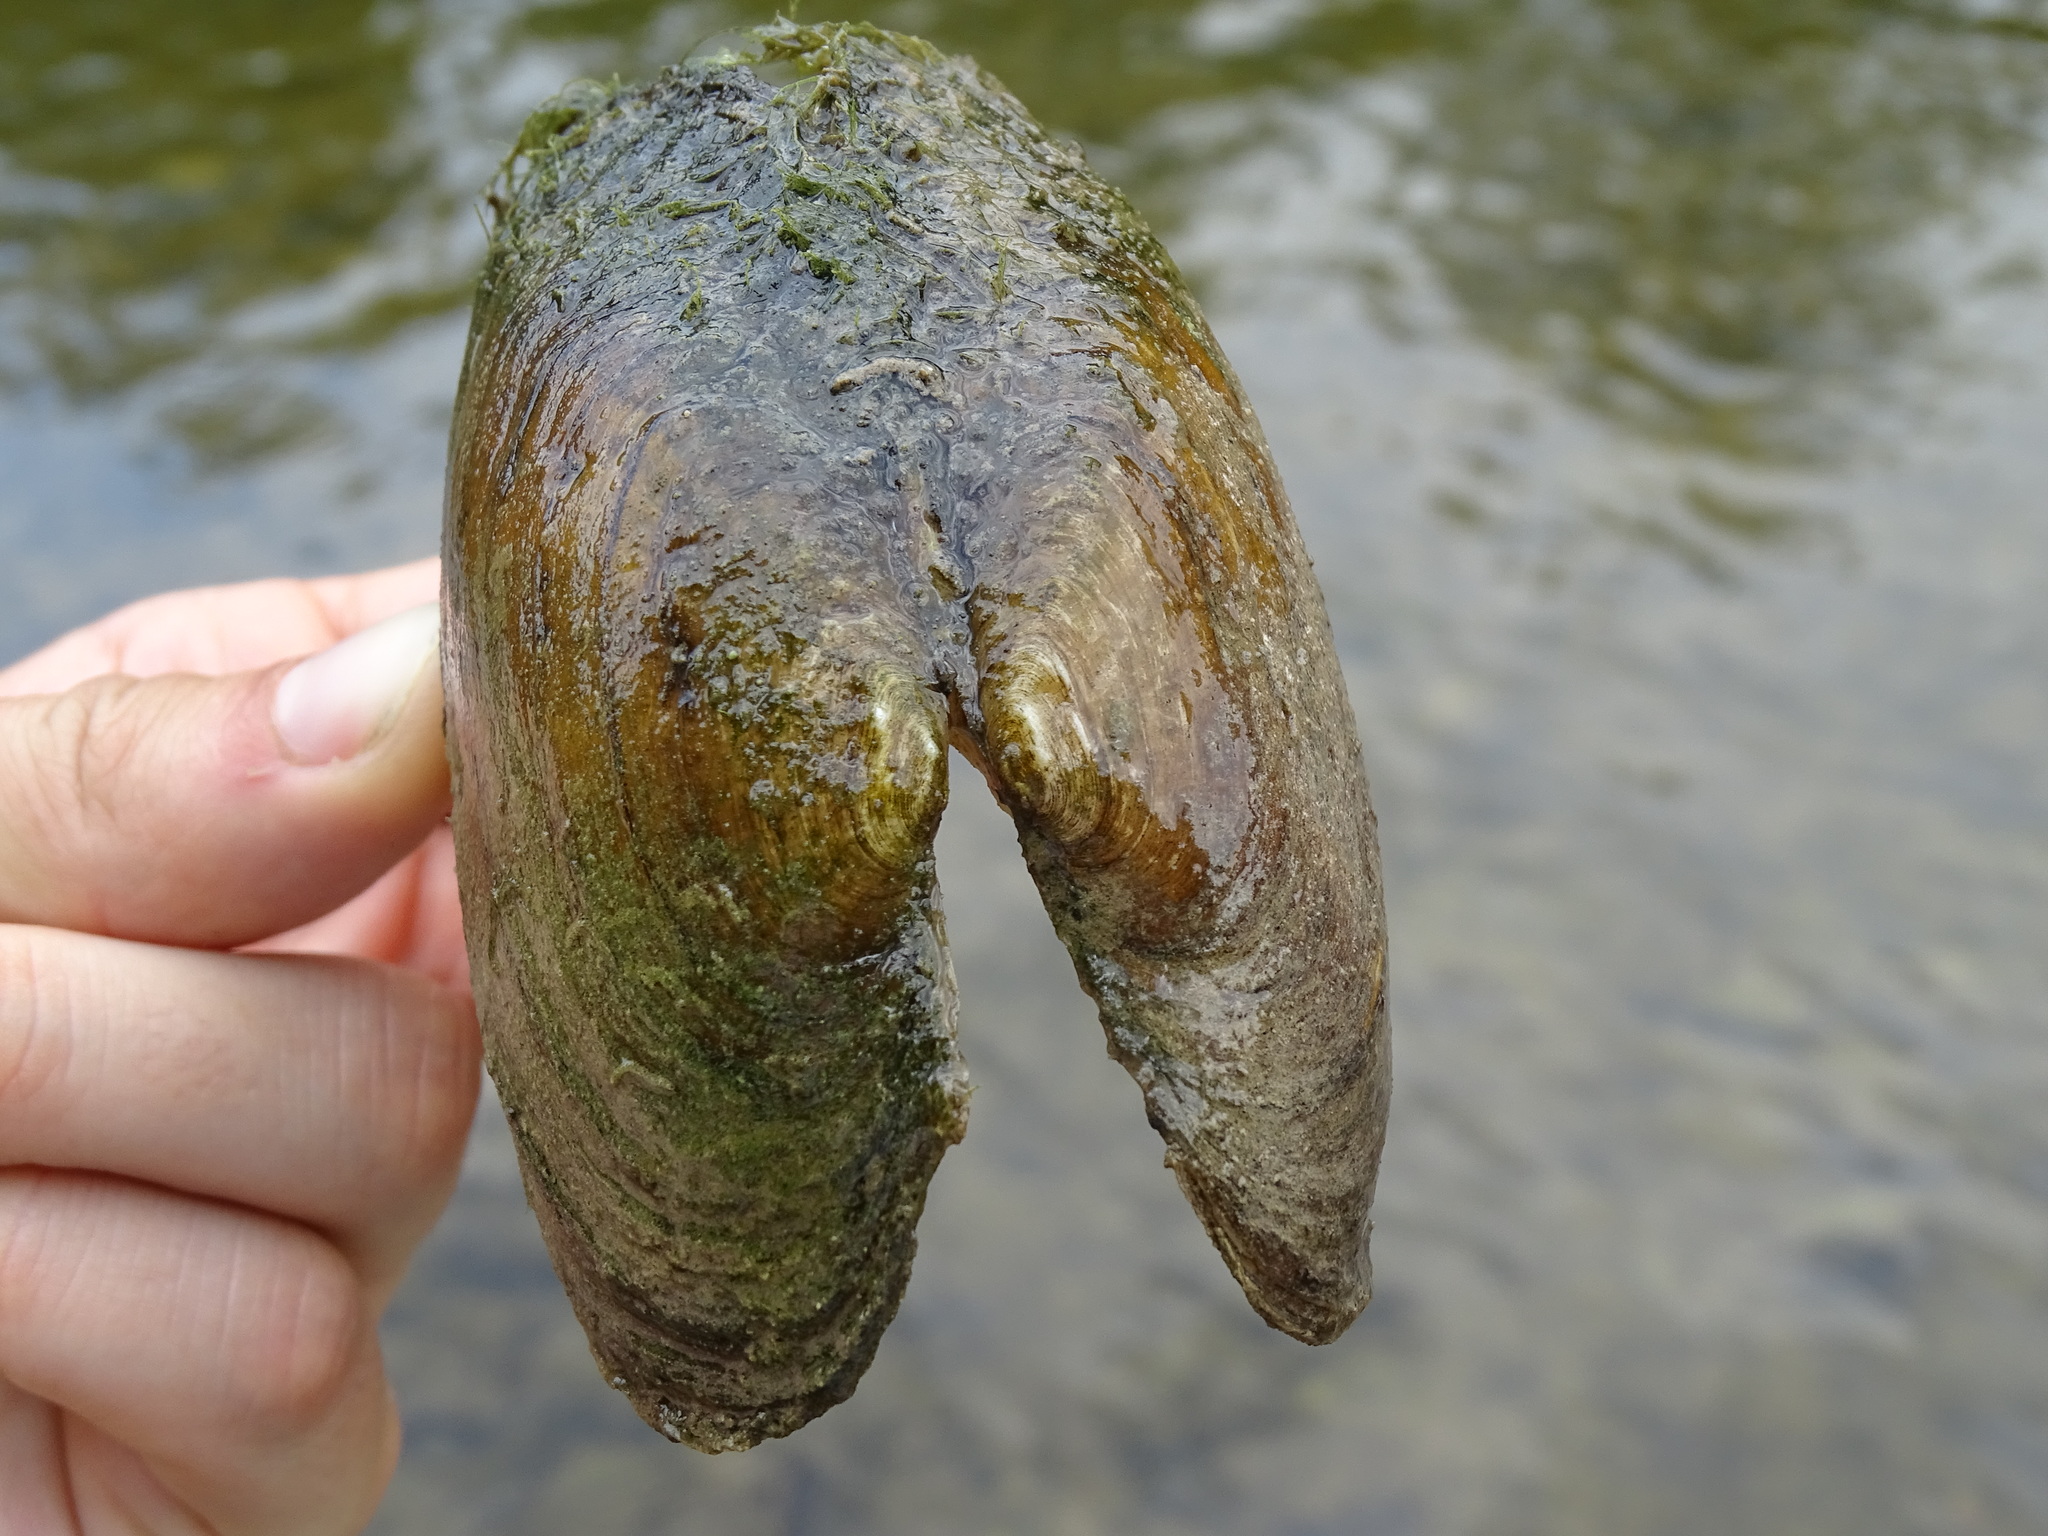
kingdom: Animalia
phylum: Mollusca
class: Bivalvia
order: Unionida
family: Unionidae
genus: Lasmigona
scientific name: Lasmigona costata
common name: Flutedshell
